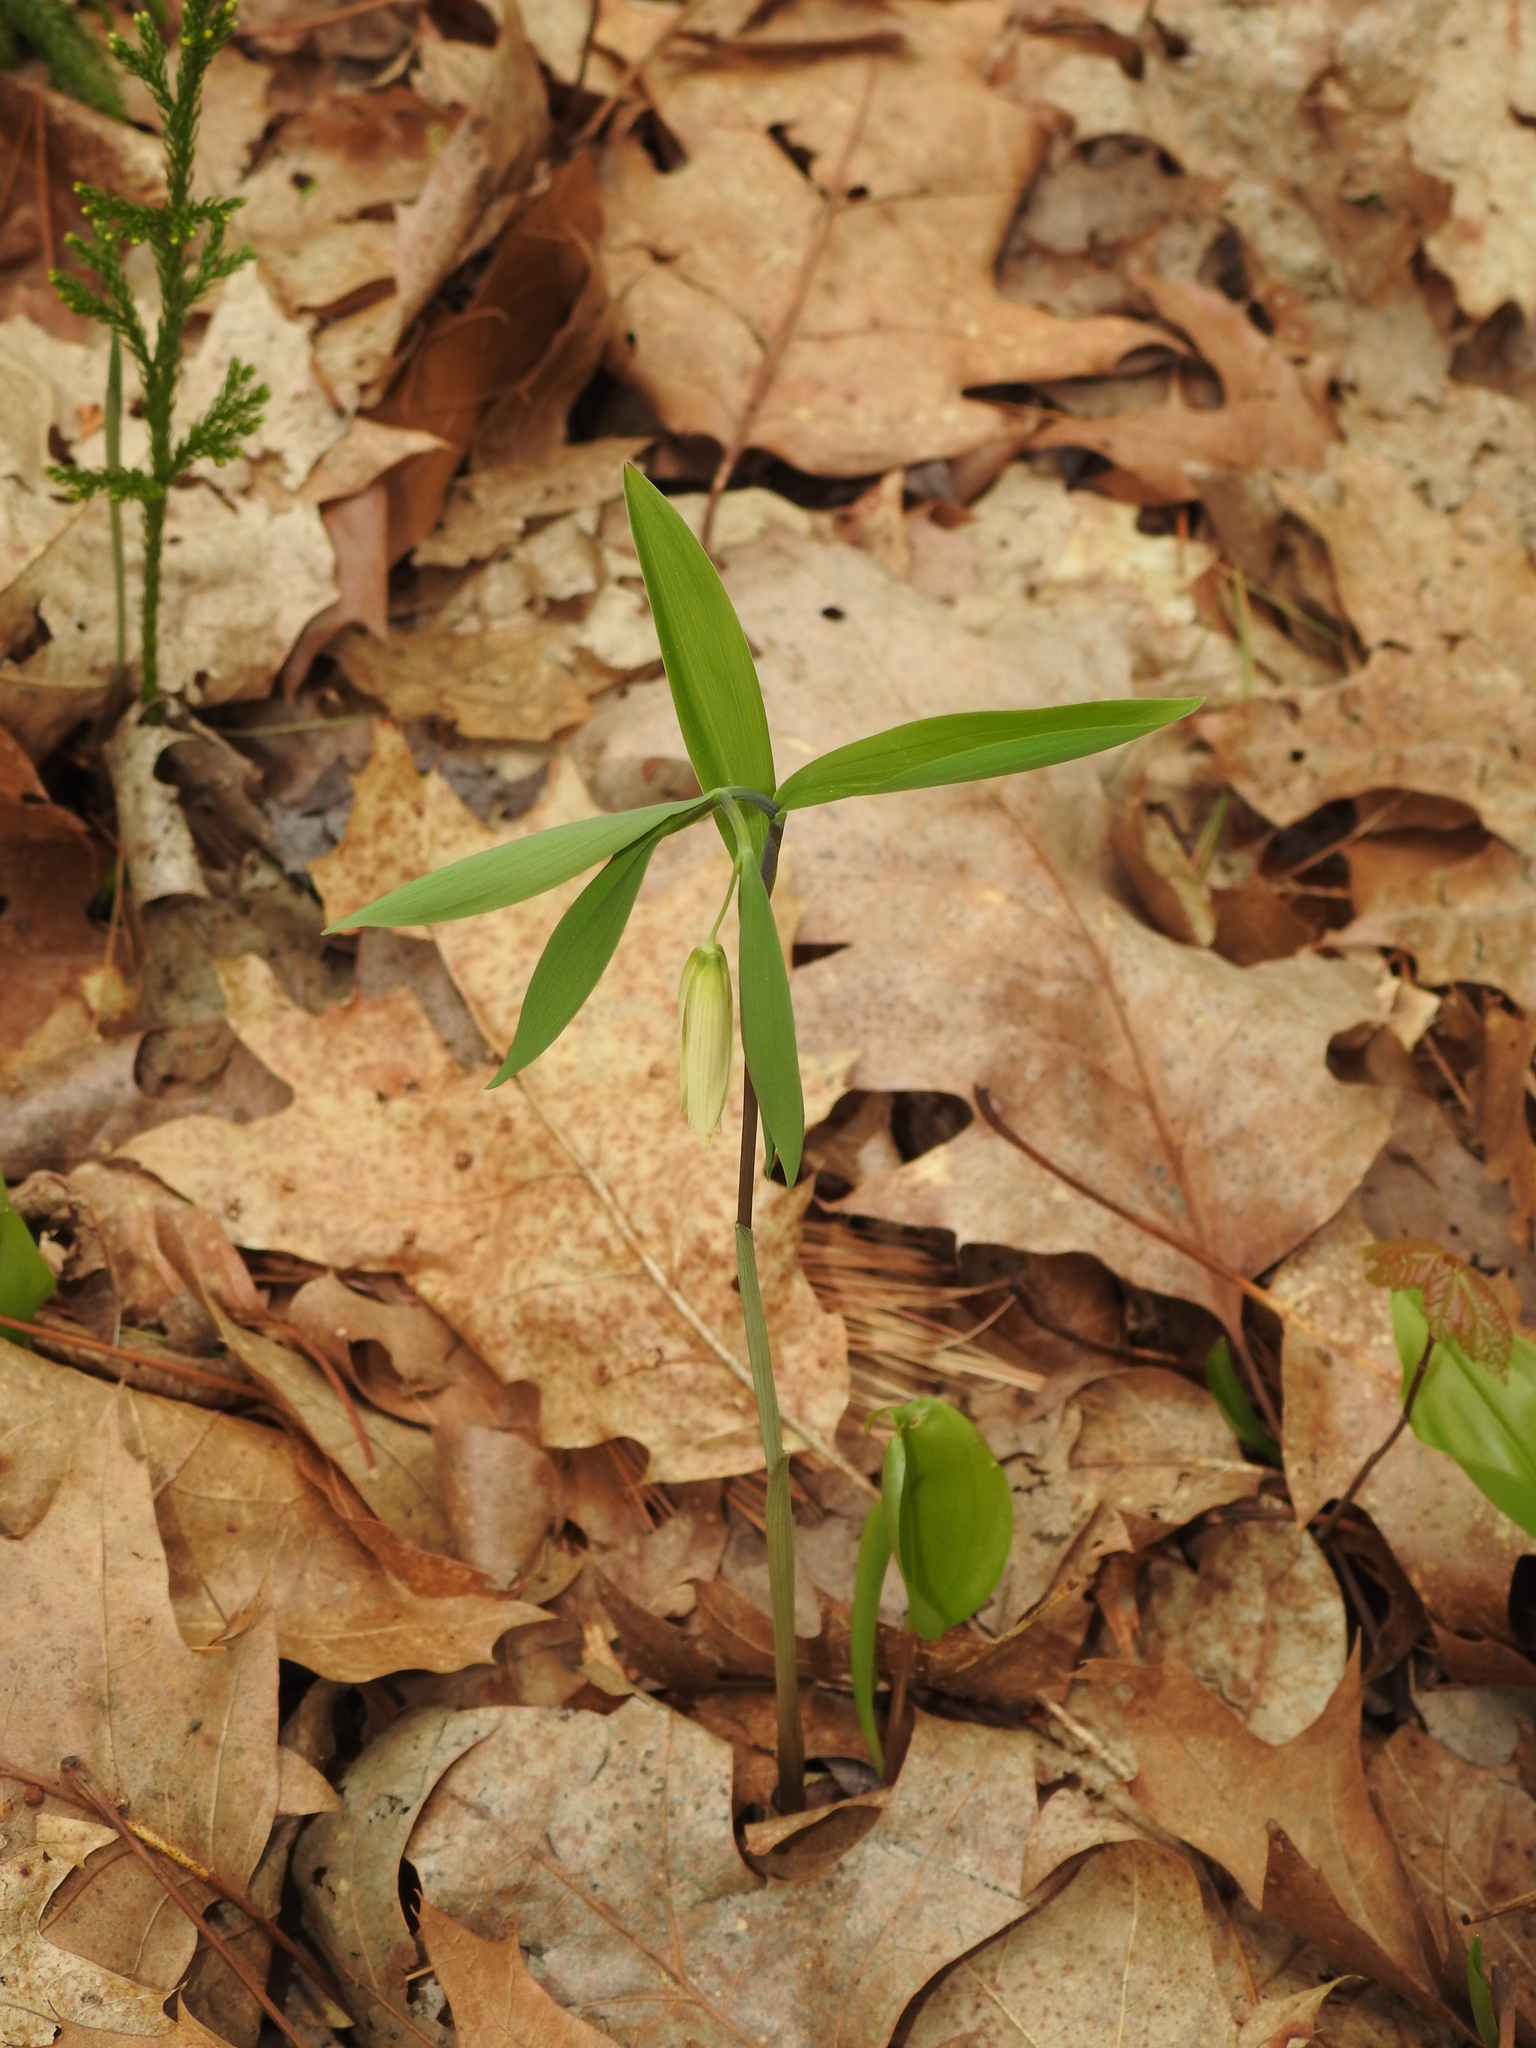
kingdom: Plantae
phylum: Tracheophyta
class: Liliopsida
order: Liliales
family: Colchicaceae
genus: Uvularia
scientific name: Uvularia sessilifolia
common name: Straw-lily
